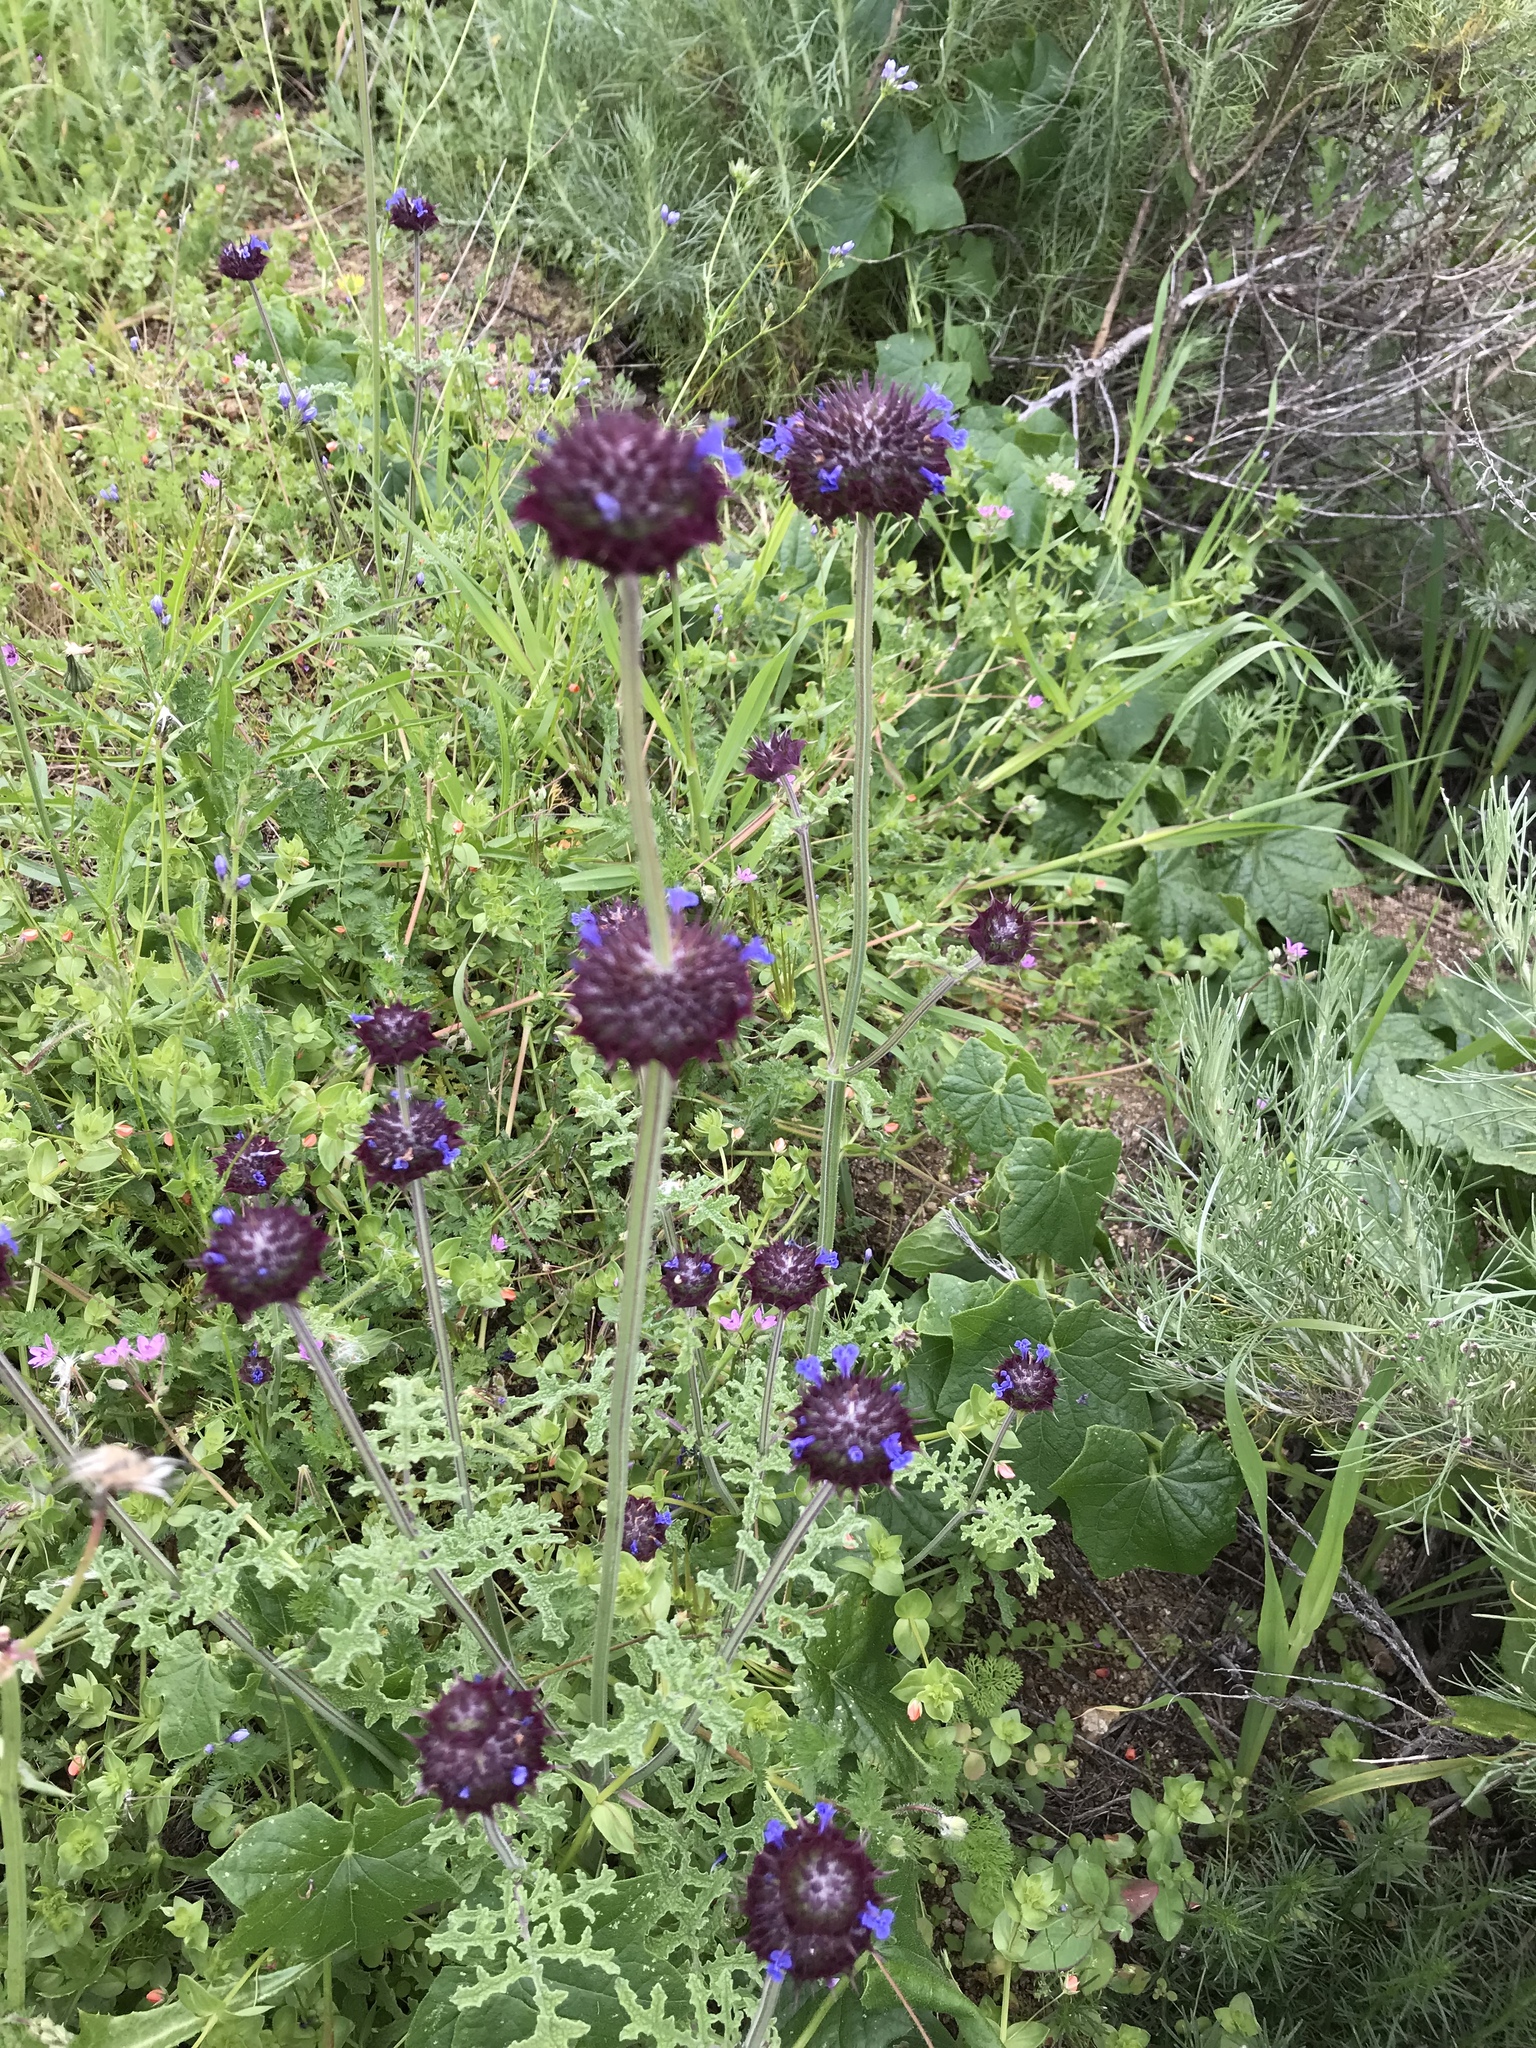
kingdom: Plantae
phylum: Tracheophyta
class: Magnoliopsida
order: Lamiales
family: Lamiaceae
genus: Salvia
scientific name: Salvia columbariae
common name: Chia
